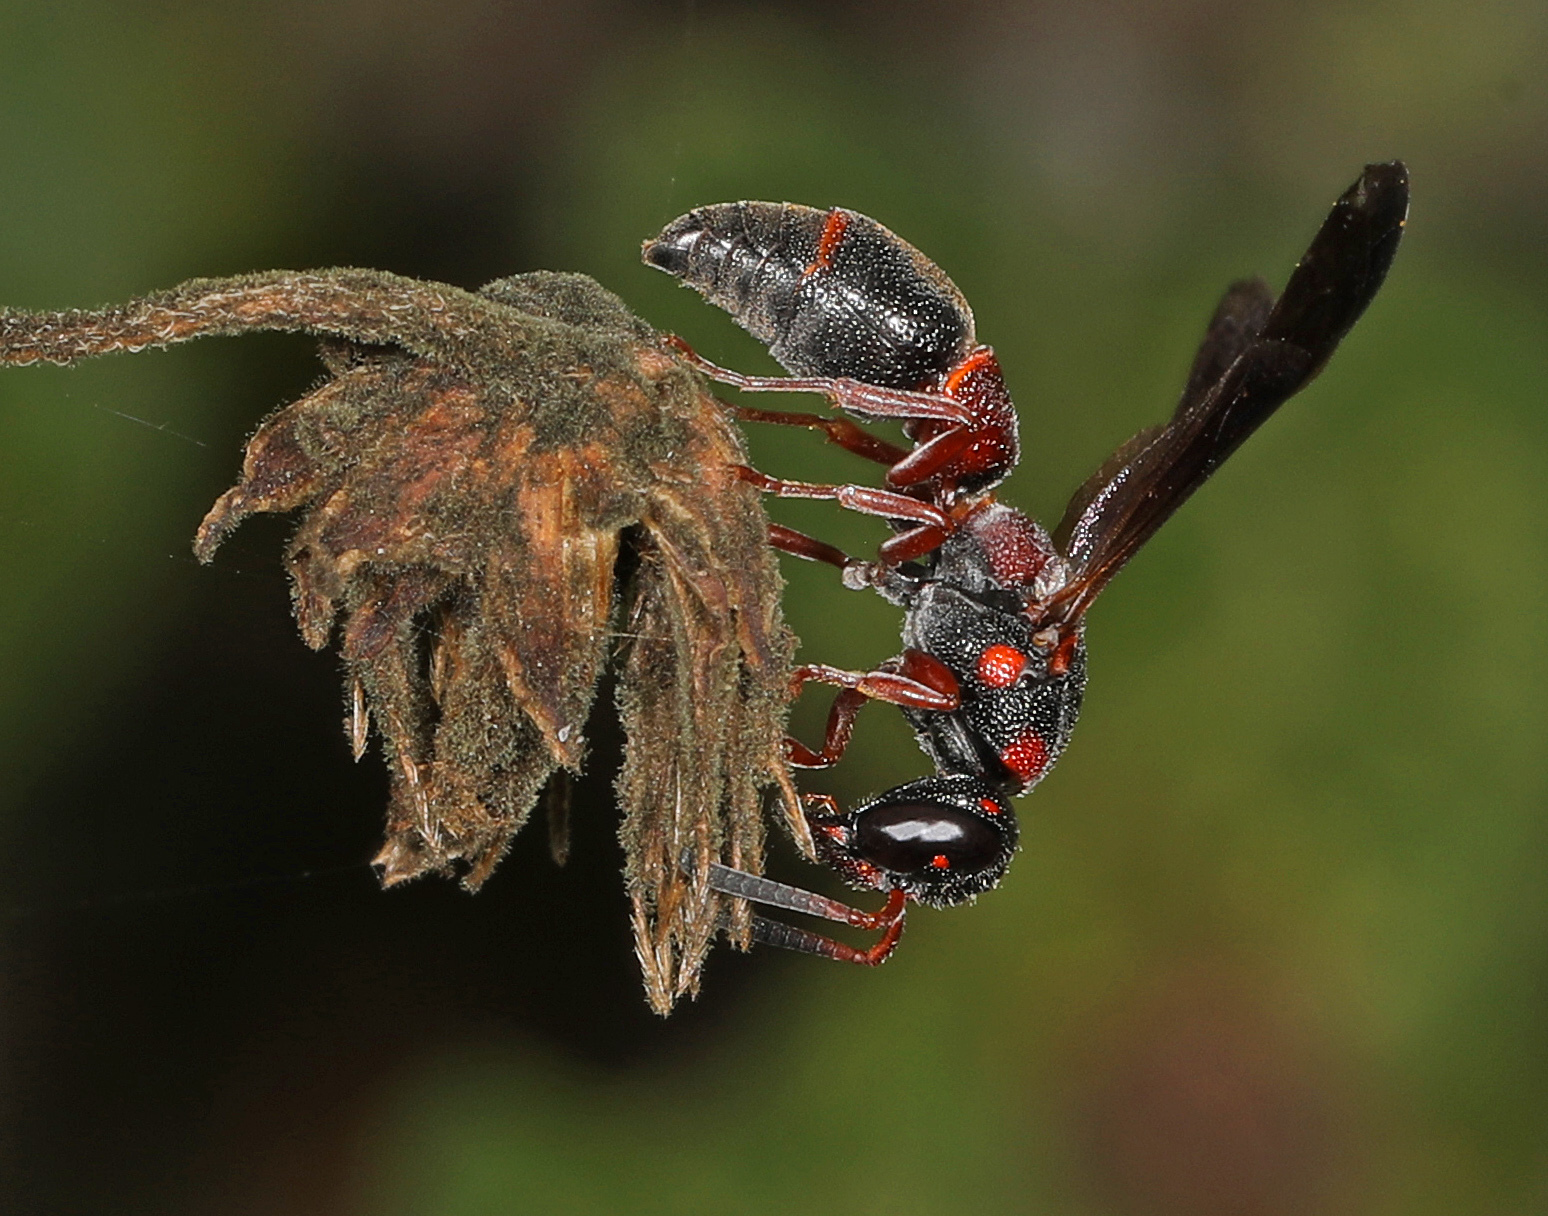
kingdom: Animalia
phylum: Arthropoda
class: Insecta
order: Hymenoptera
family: Eumenidae
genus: Parancistrocerus
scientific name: Parancistrocerus perennis
